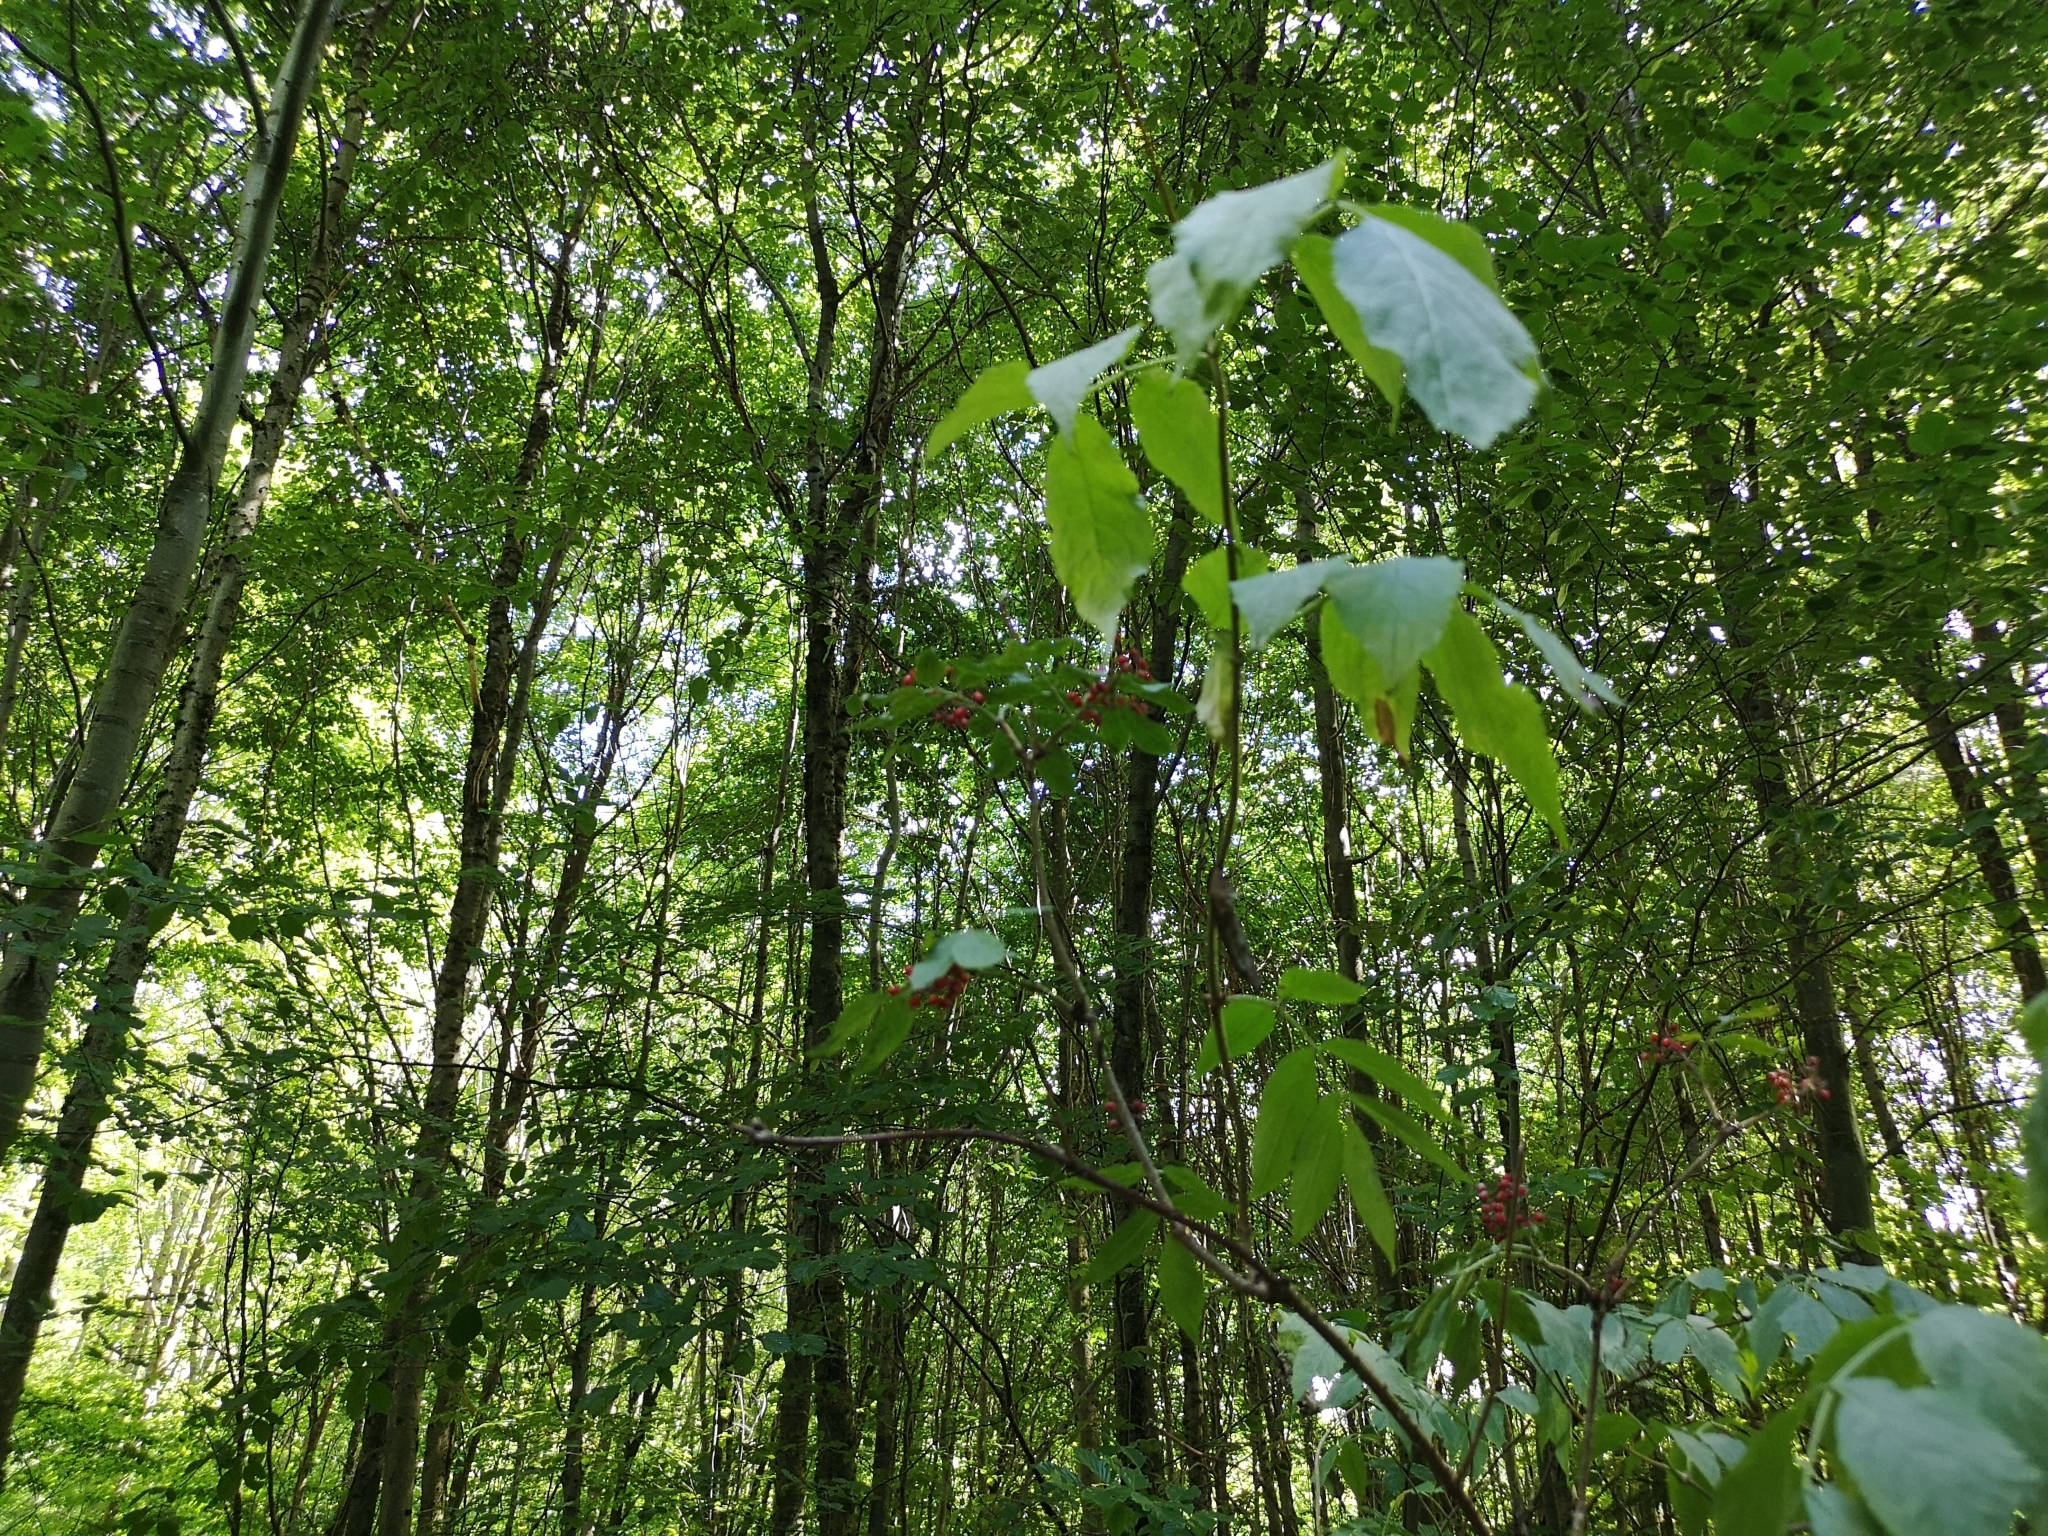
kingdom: Plantae
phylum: Tracheophyta
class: Magnoliopsida
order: Dipsacales
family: Viburnaceae
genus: Sambucus
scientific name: Sambucus racemosa
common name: Red-berried elder
